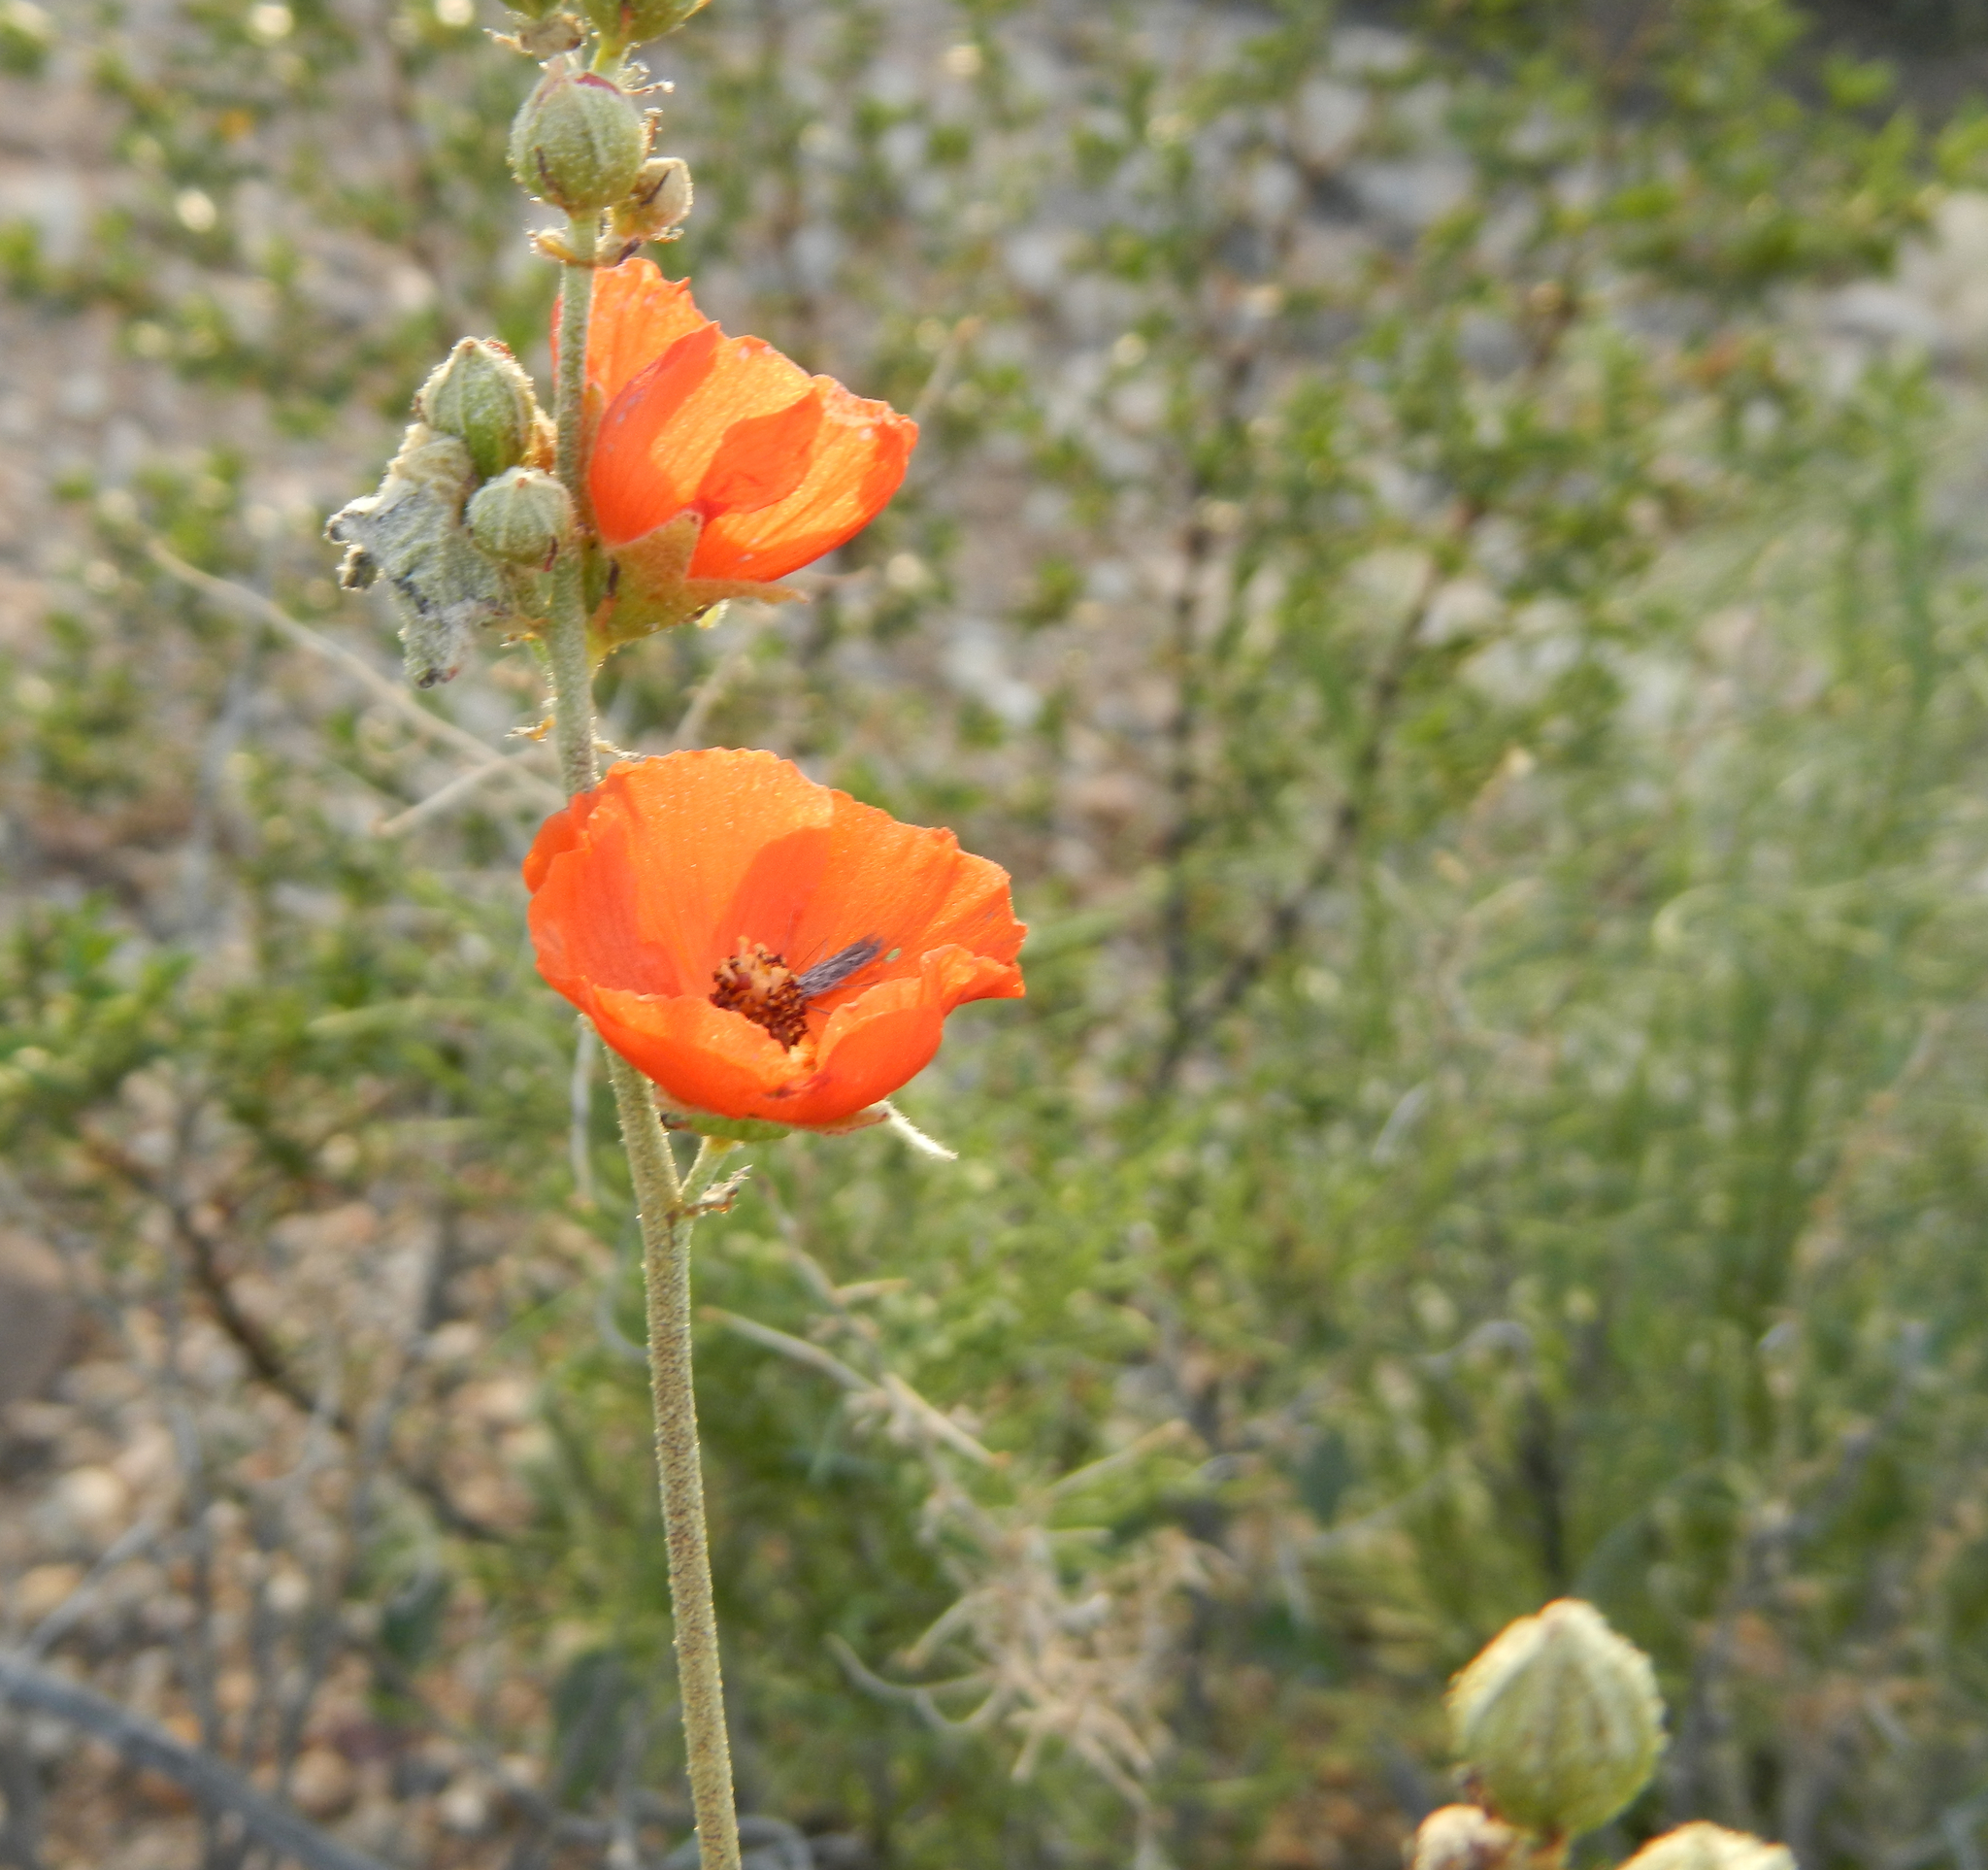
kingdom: Plantae
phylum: Tracheophyta
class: Magnoliopsida
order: Malvales
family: Malvaceae
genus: Sphaeralcea
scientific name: Sphaeralcea ambigua
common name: Apricot globe-mallow
